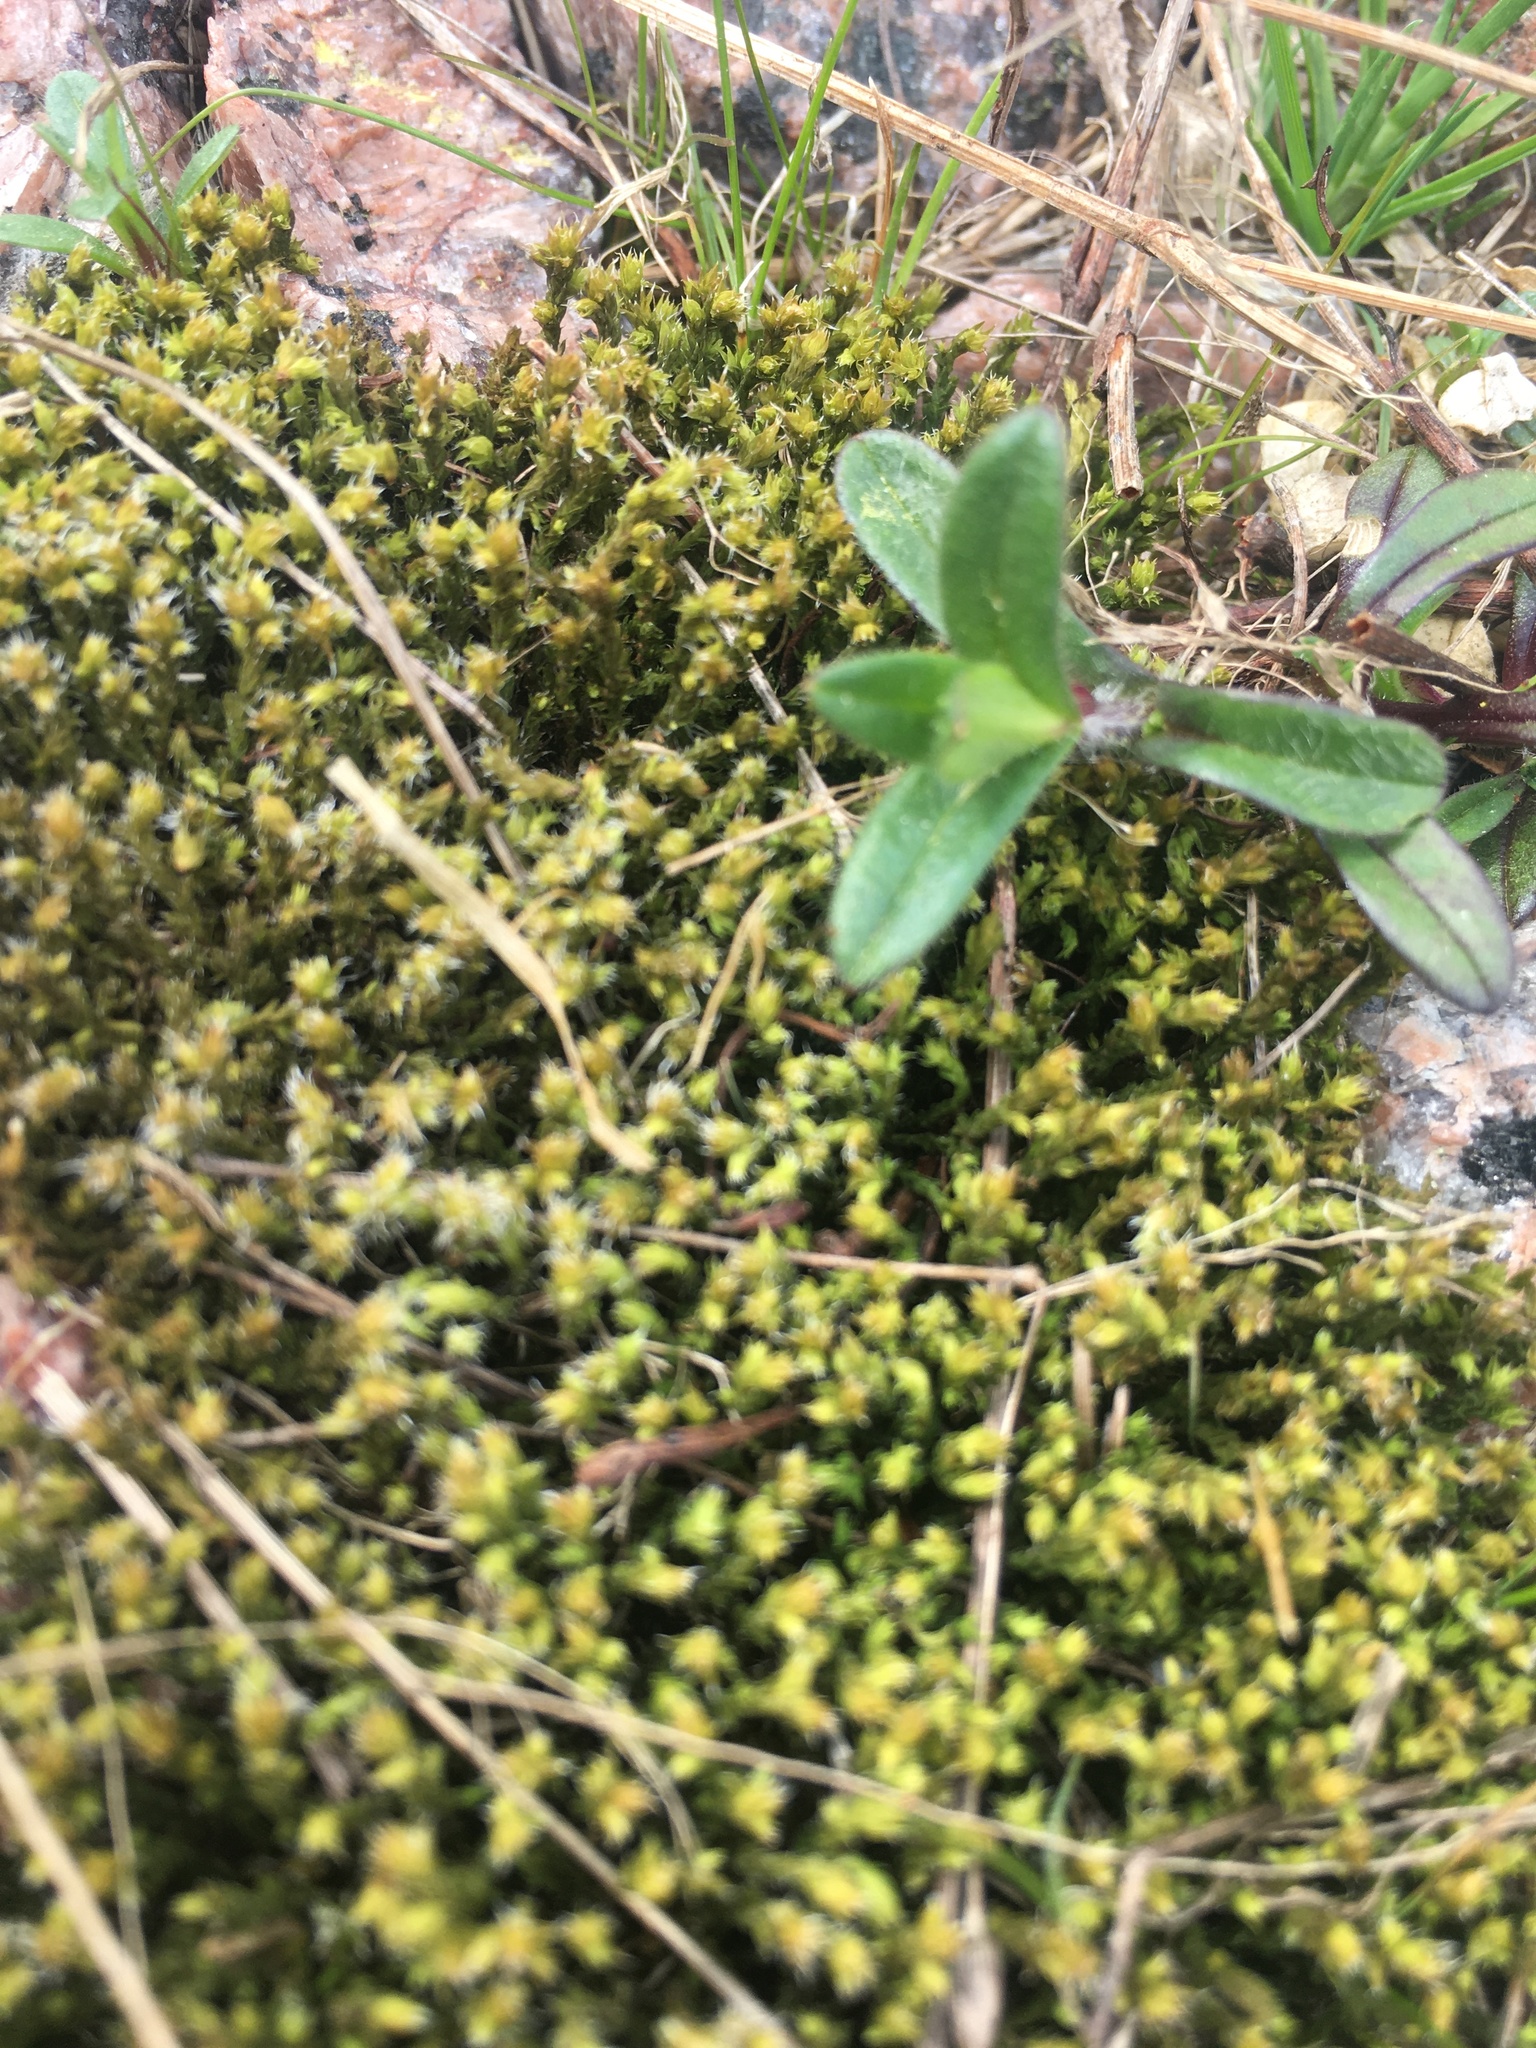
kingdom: Plantae
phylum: Tracheophyta
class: Magnoliopsida
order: Caryophyllales
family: Caryophyllaceae
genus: Cerastium
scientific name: Cerastium holosteoides
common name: Big chickweed
